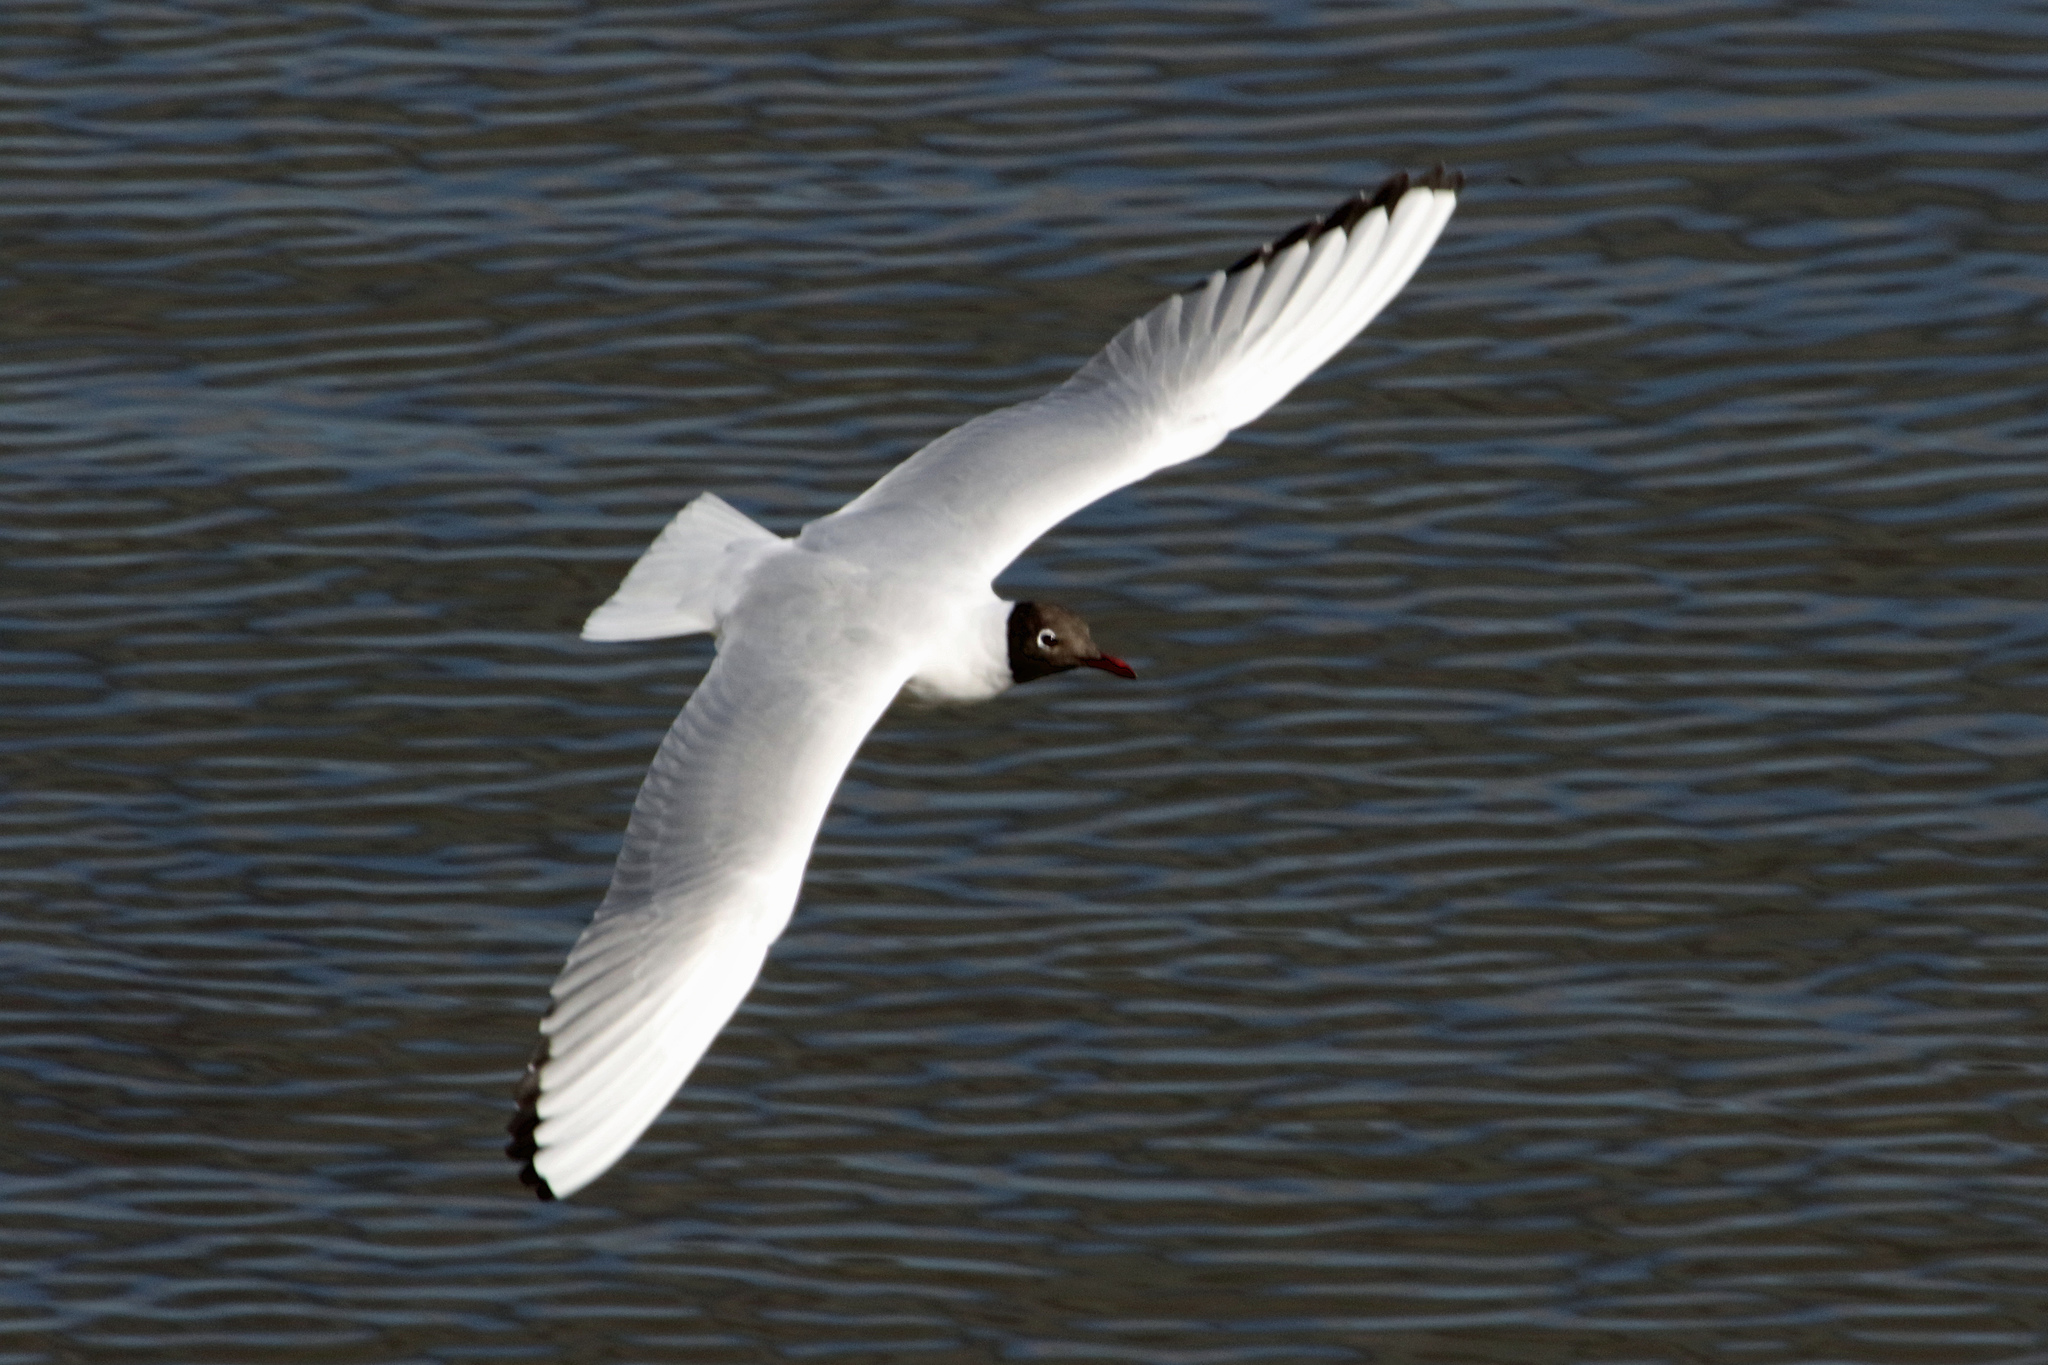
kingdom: Animalia
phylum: Chordata
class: Aves
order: Charadriiformes
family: Laridae
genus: Chroicocephalus
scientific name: Chroicocephalus ridibundus
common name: Black-headed gull
